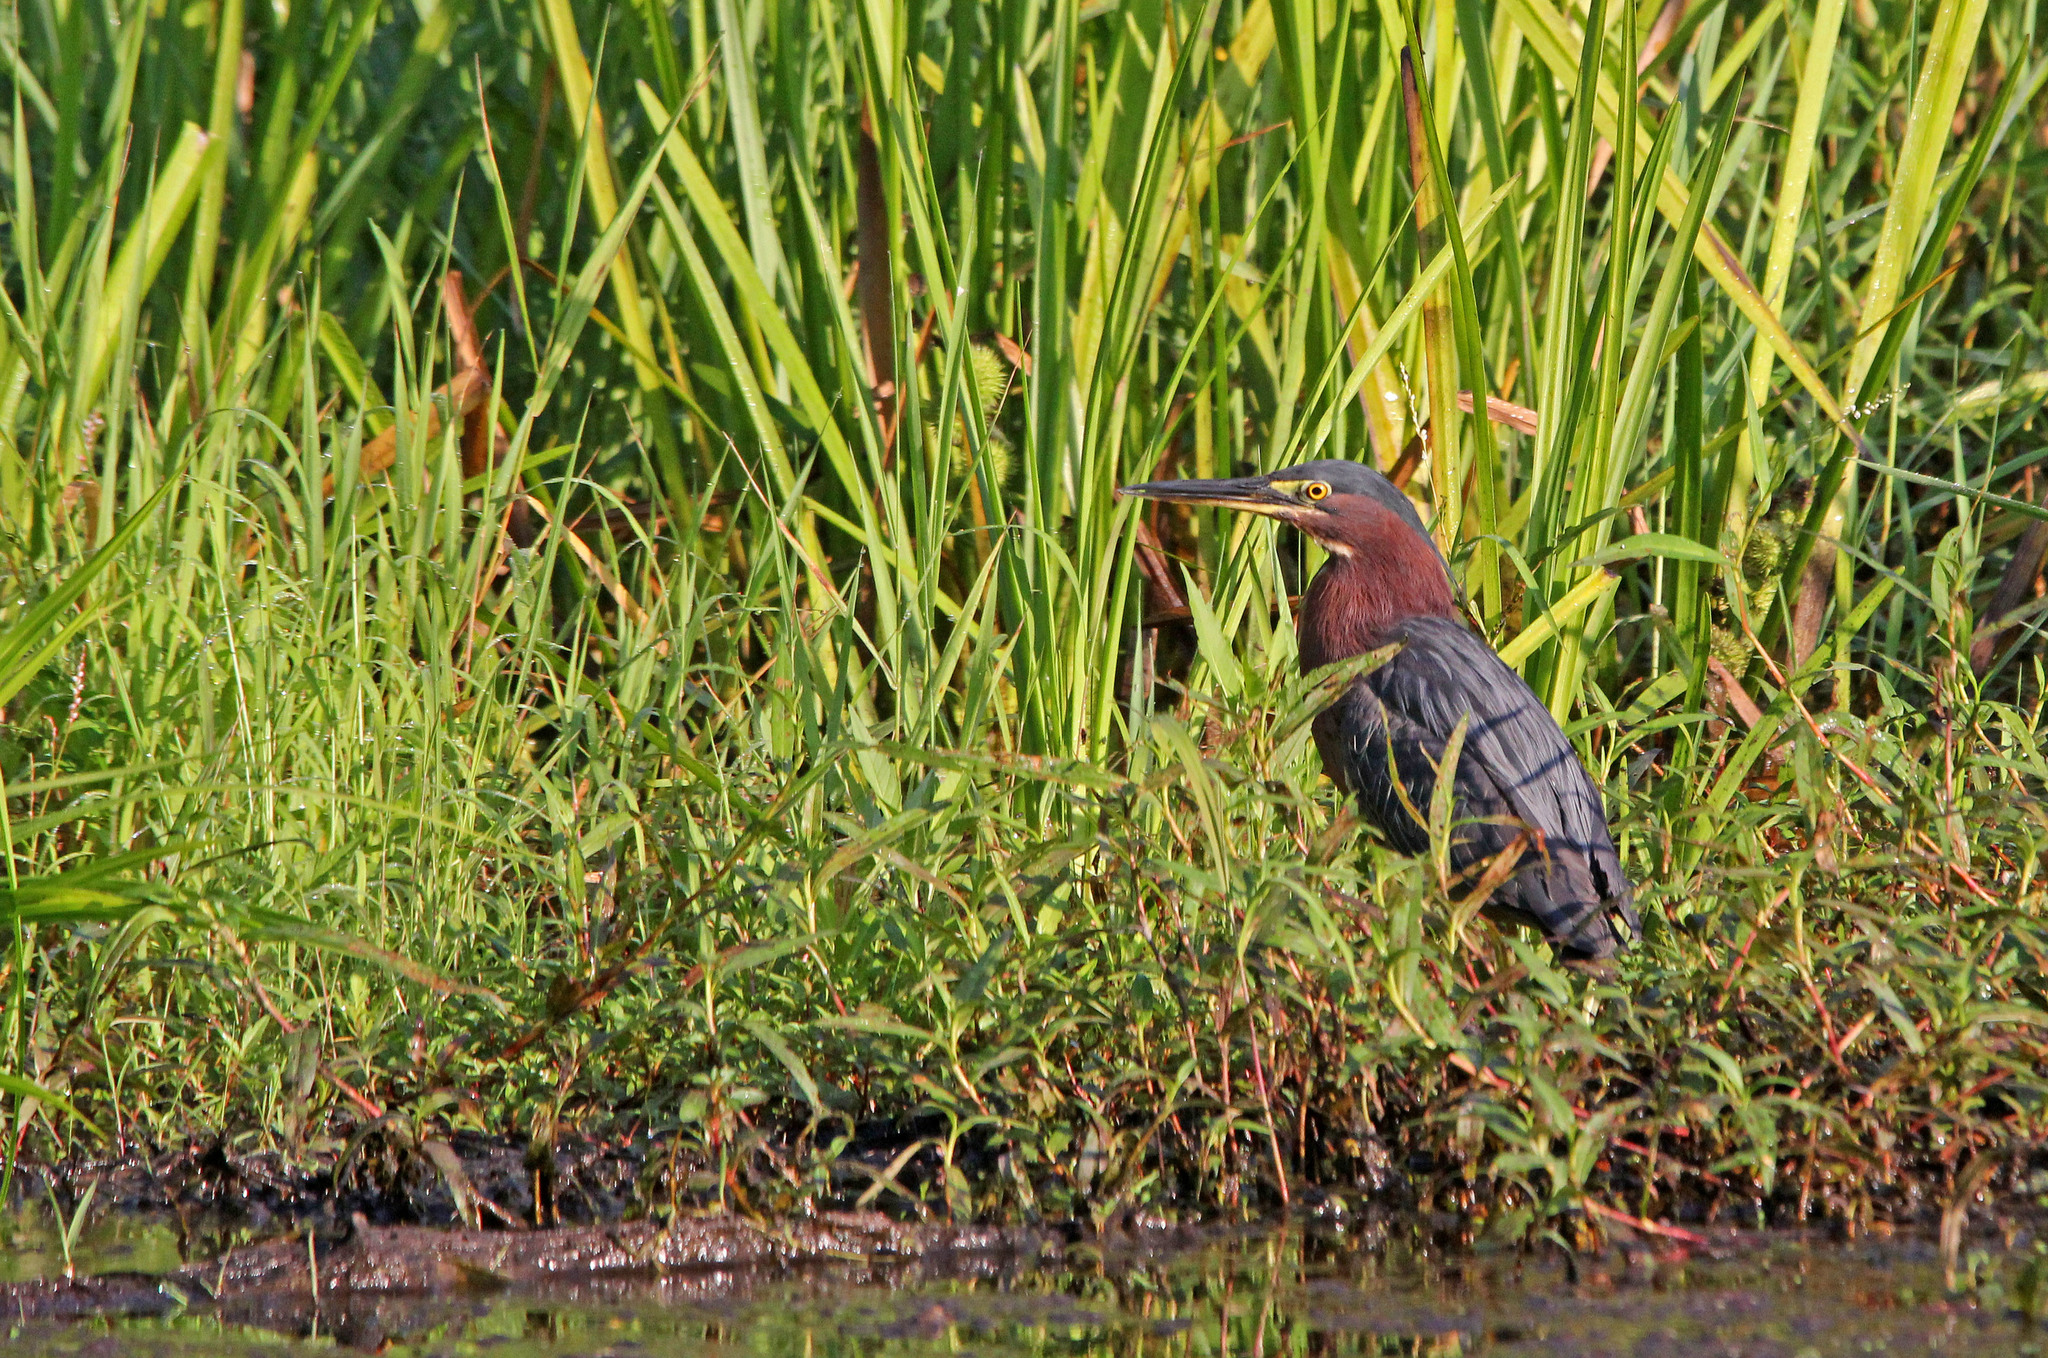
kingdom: Animalia
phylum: Chordata
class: Aves
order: Pelecaniformes
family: Ardeidae
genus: Butorides
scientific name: Butorides virescens
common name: Green heron
